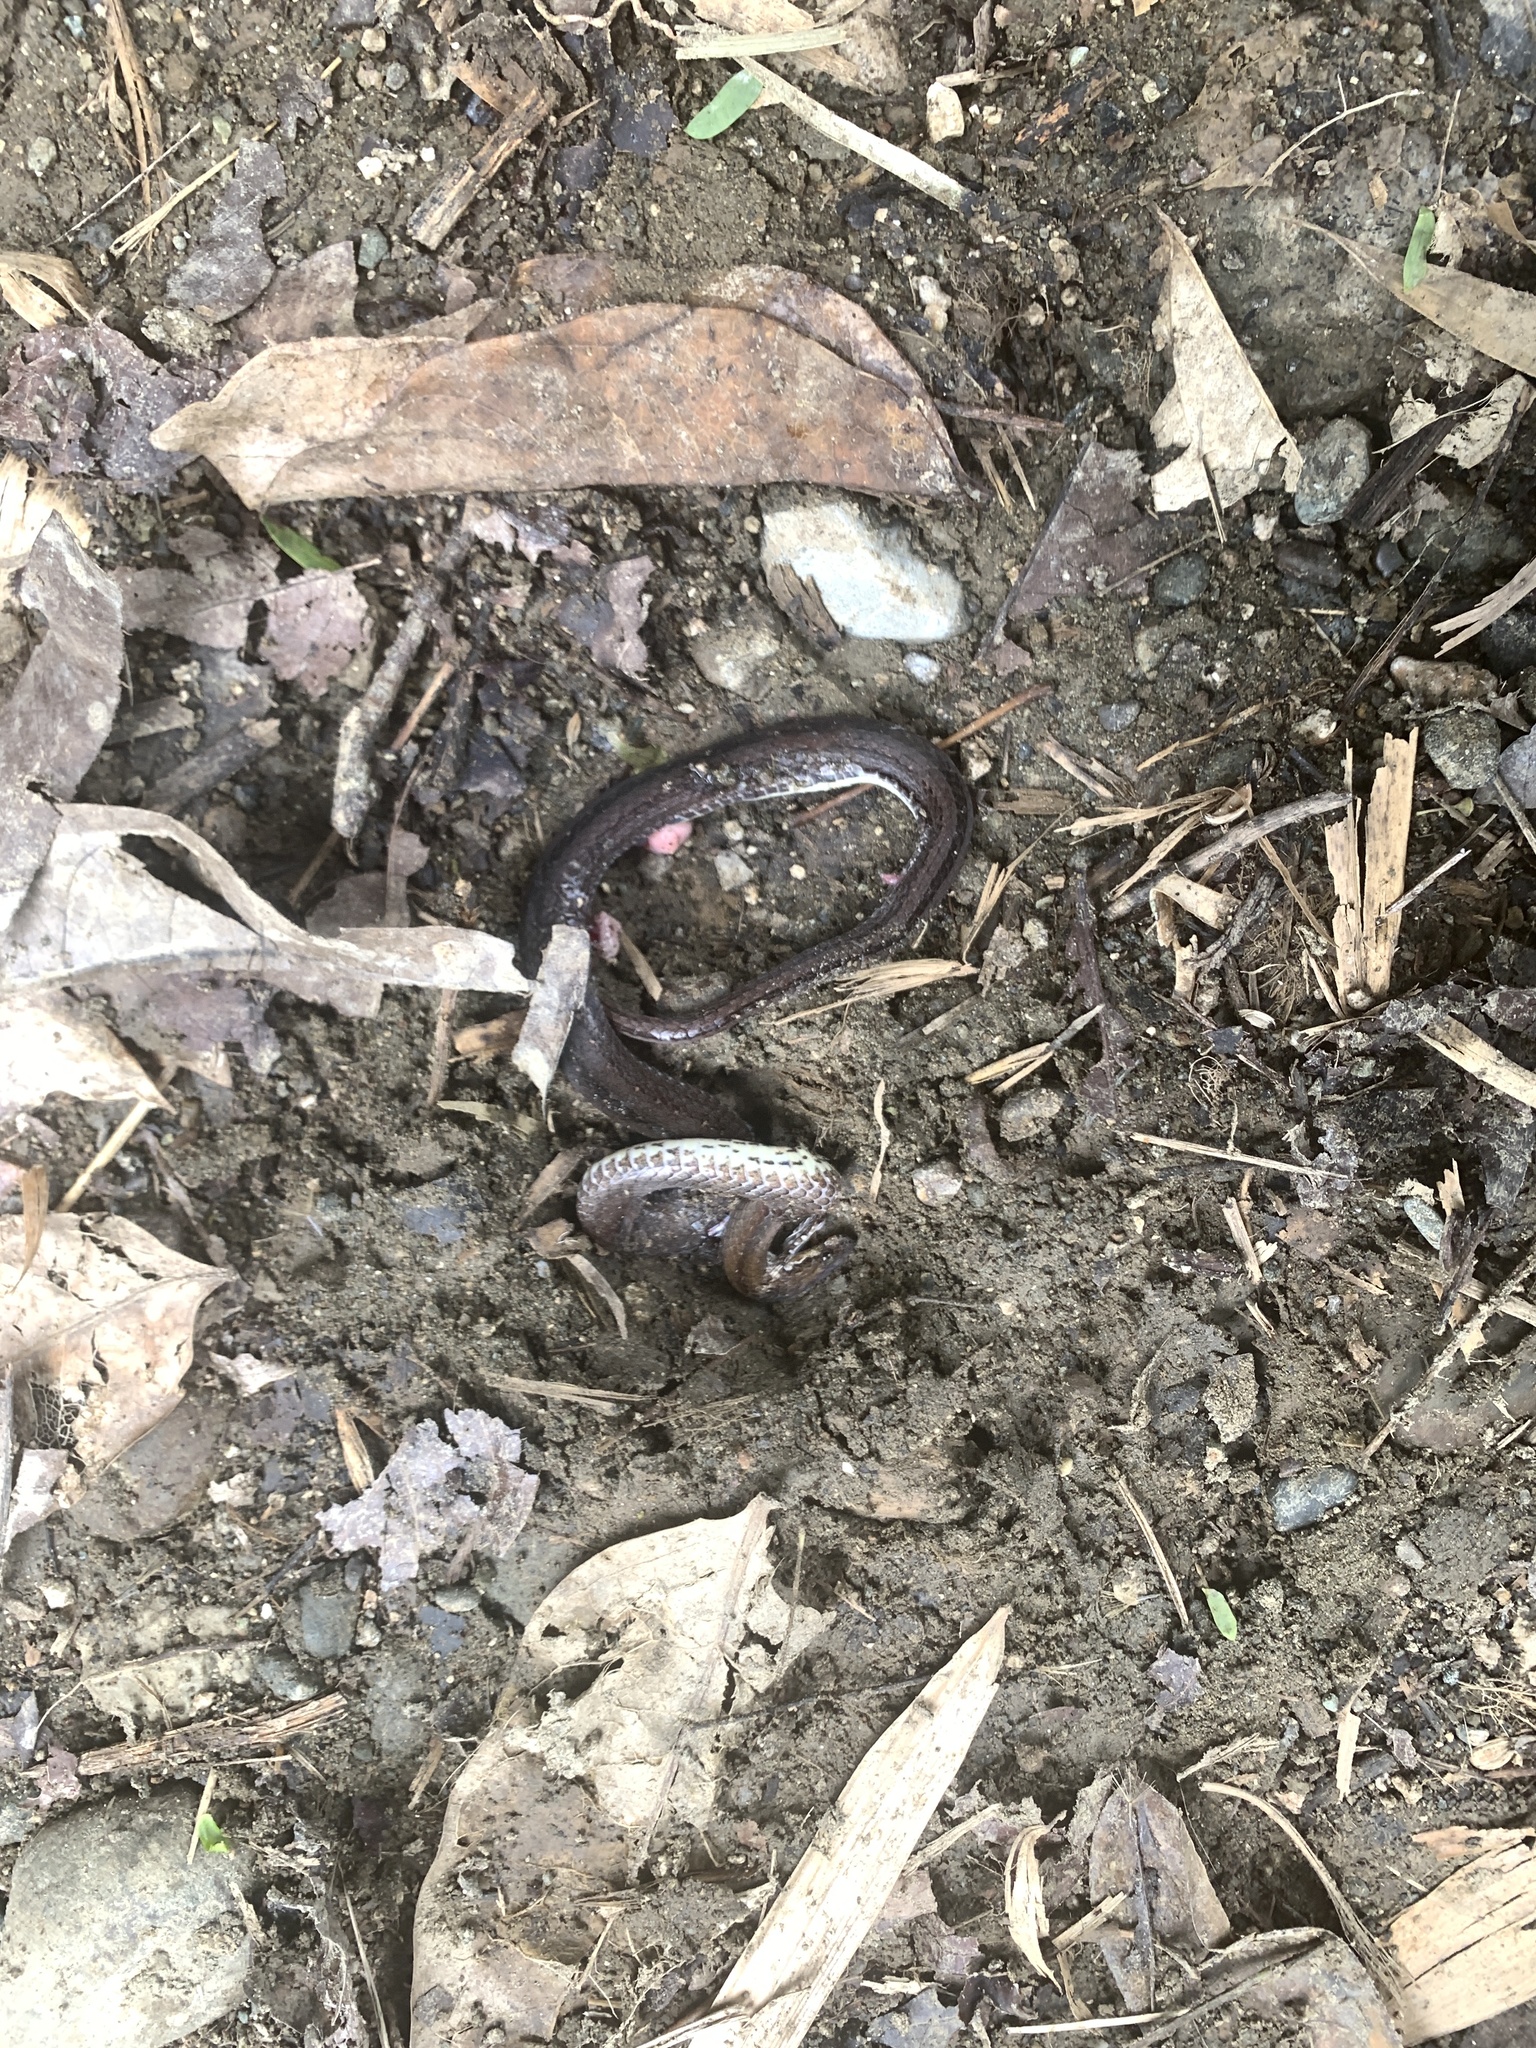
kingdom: Animalia
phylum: Chordata
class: Squamata
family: Cyclocoridae
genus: Cyclocorus
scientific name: Cyclocorus nuchalis
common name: Southern triangle-spotted snake
